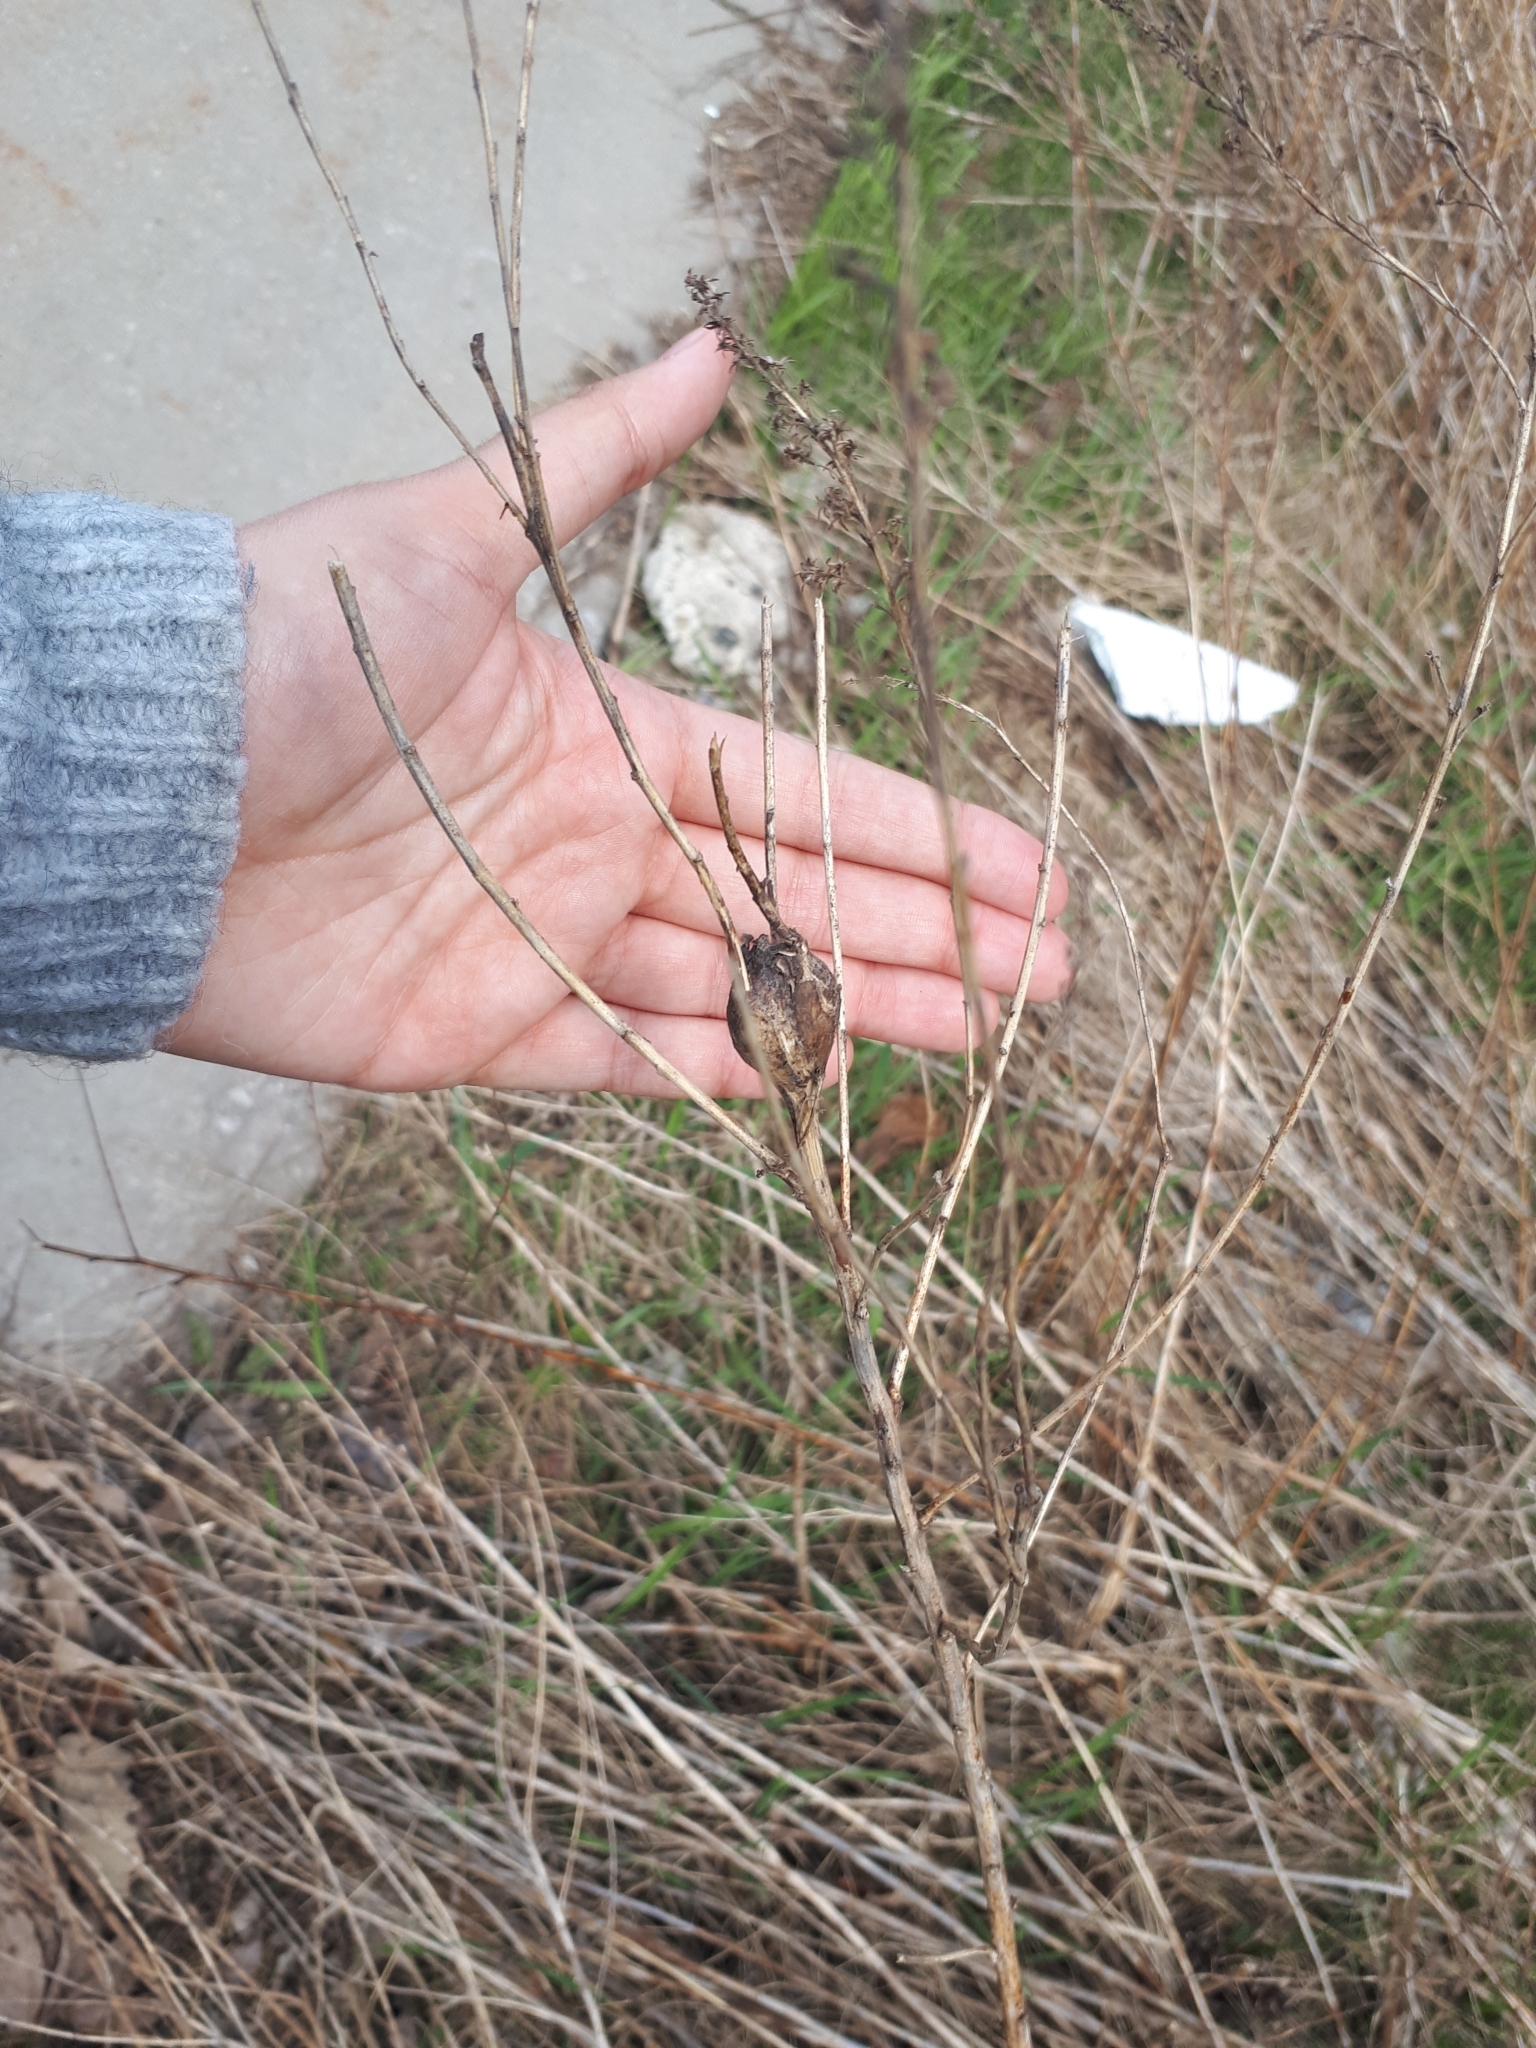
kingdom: Animalia
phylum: Arthropoda
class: Insecta
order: Diptera
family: Tephritidae
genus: Eurosta
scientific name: Eurosta solidaginis
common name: Goldenrod gall fly
